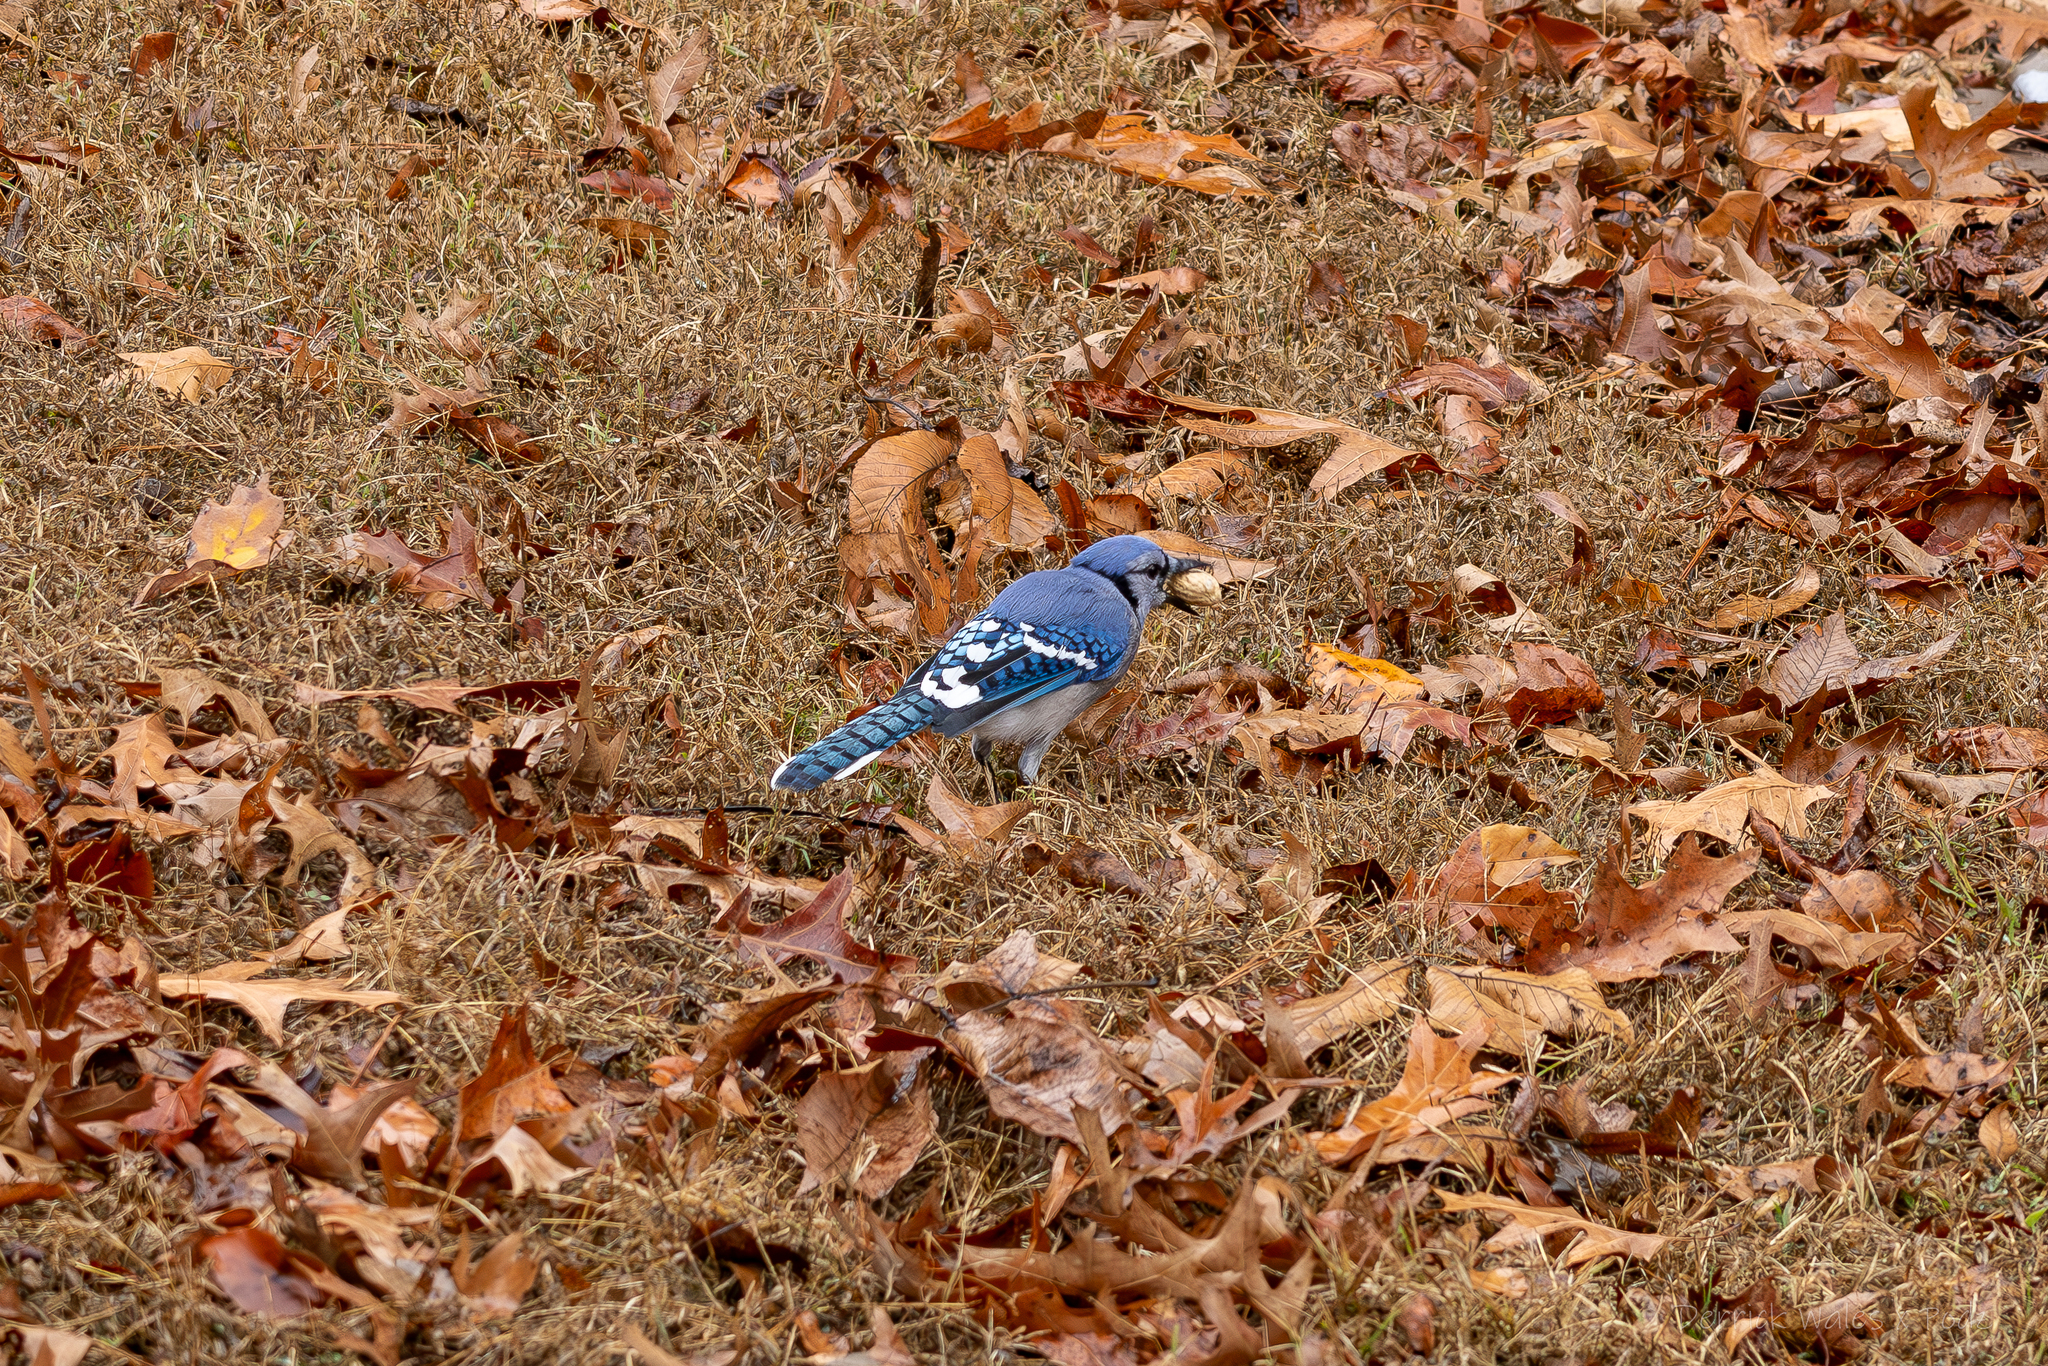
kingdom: Animalia
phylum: Chordata
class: Aves
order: Passeriformes
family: Corvidae
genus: Cyanocitta
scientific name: Cyanocitta cristata
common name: Blue jay
